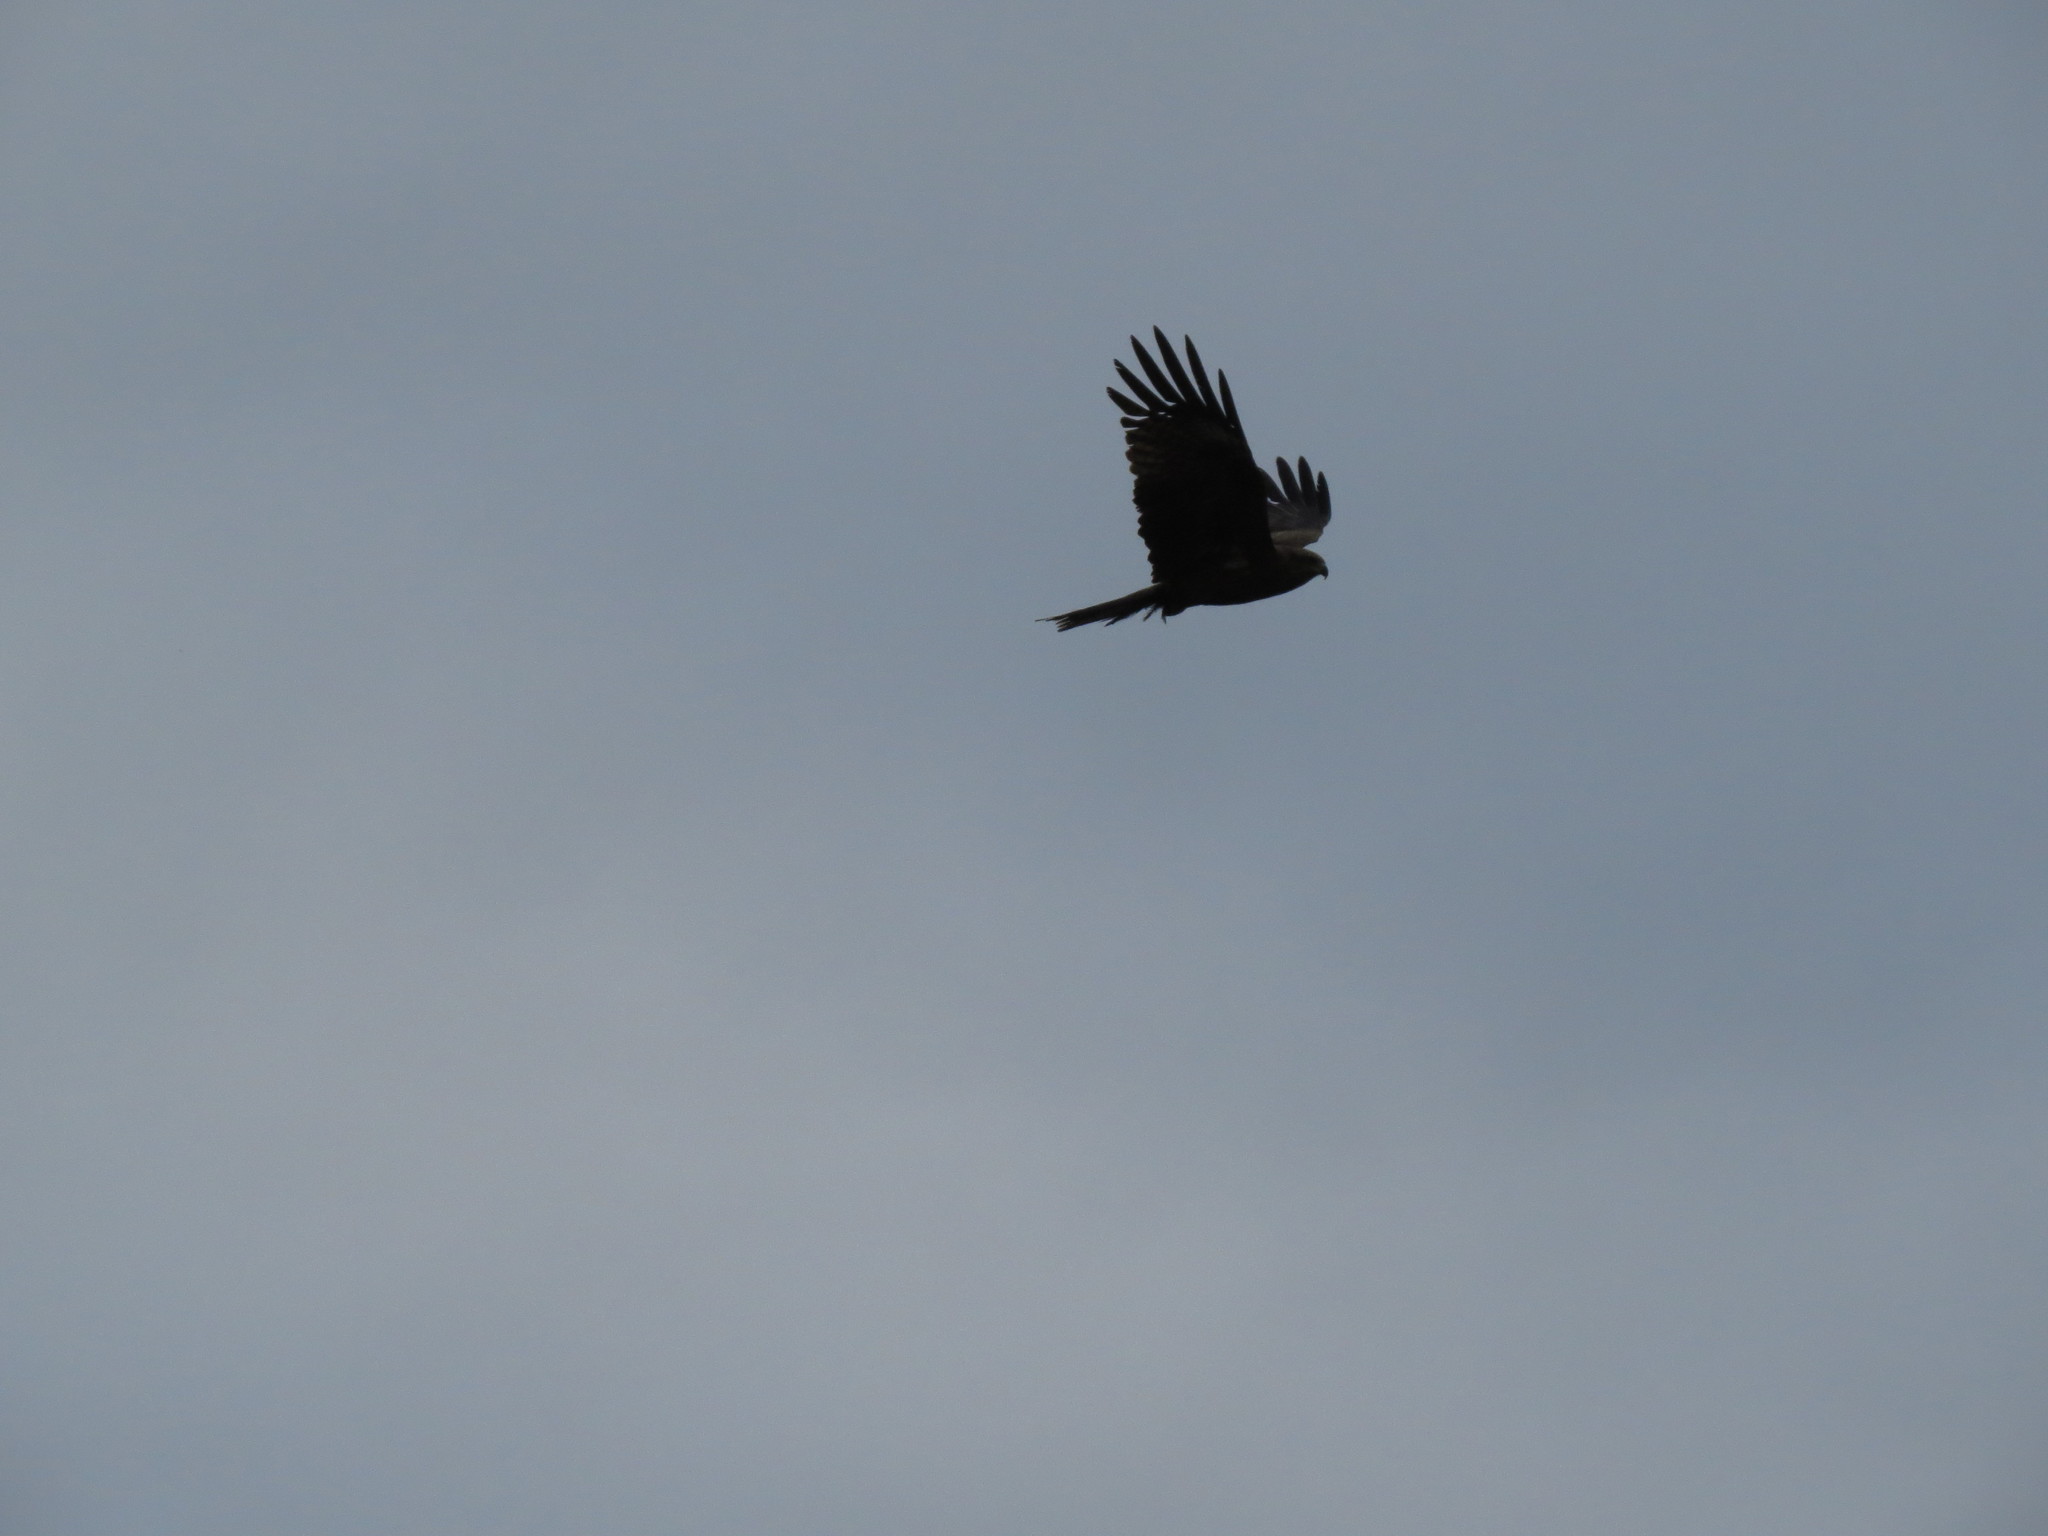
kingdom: Animalia
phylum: Chordata
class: Aves
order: Accipitriformes
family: Accipitridae
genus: Milvus
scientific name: Milvus migrans
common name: Black kite
